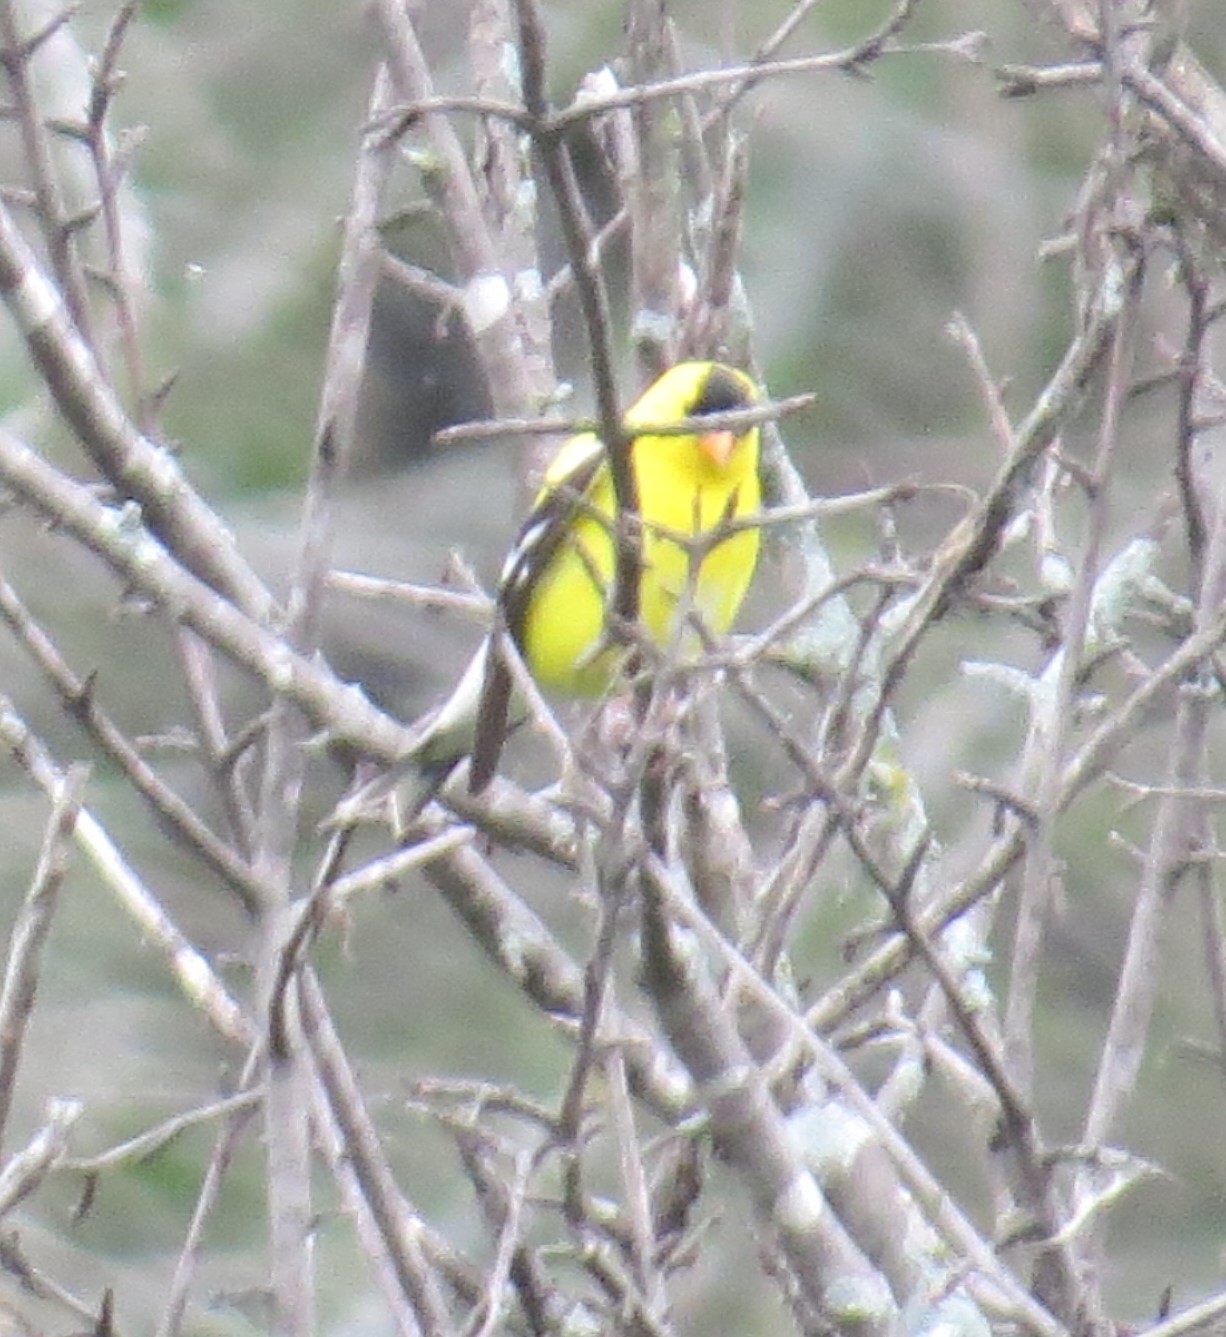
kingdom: Animalia
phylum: Chordata
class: Aves
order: Passeriformes
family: Fringillidae
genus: Spinus
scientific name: Spinus tristis
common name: American goldfinch
